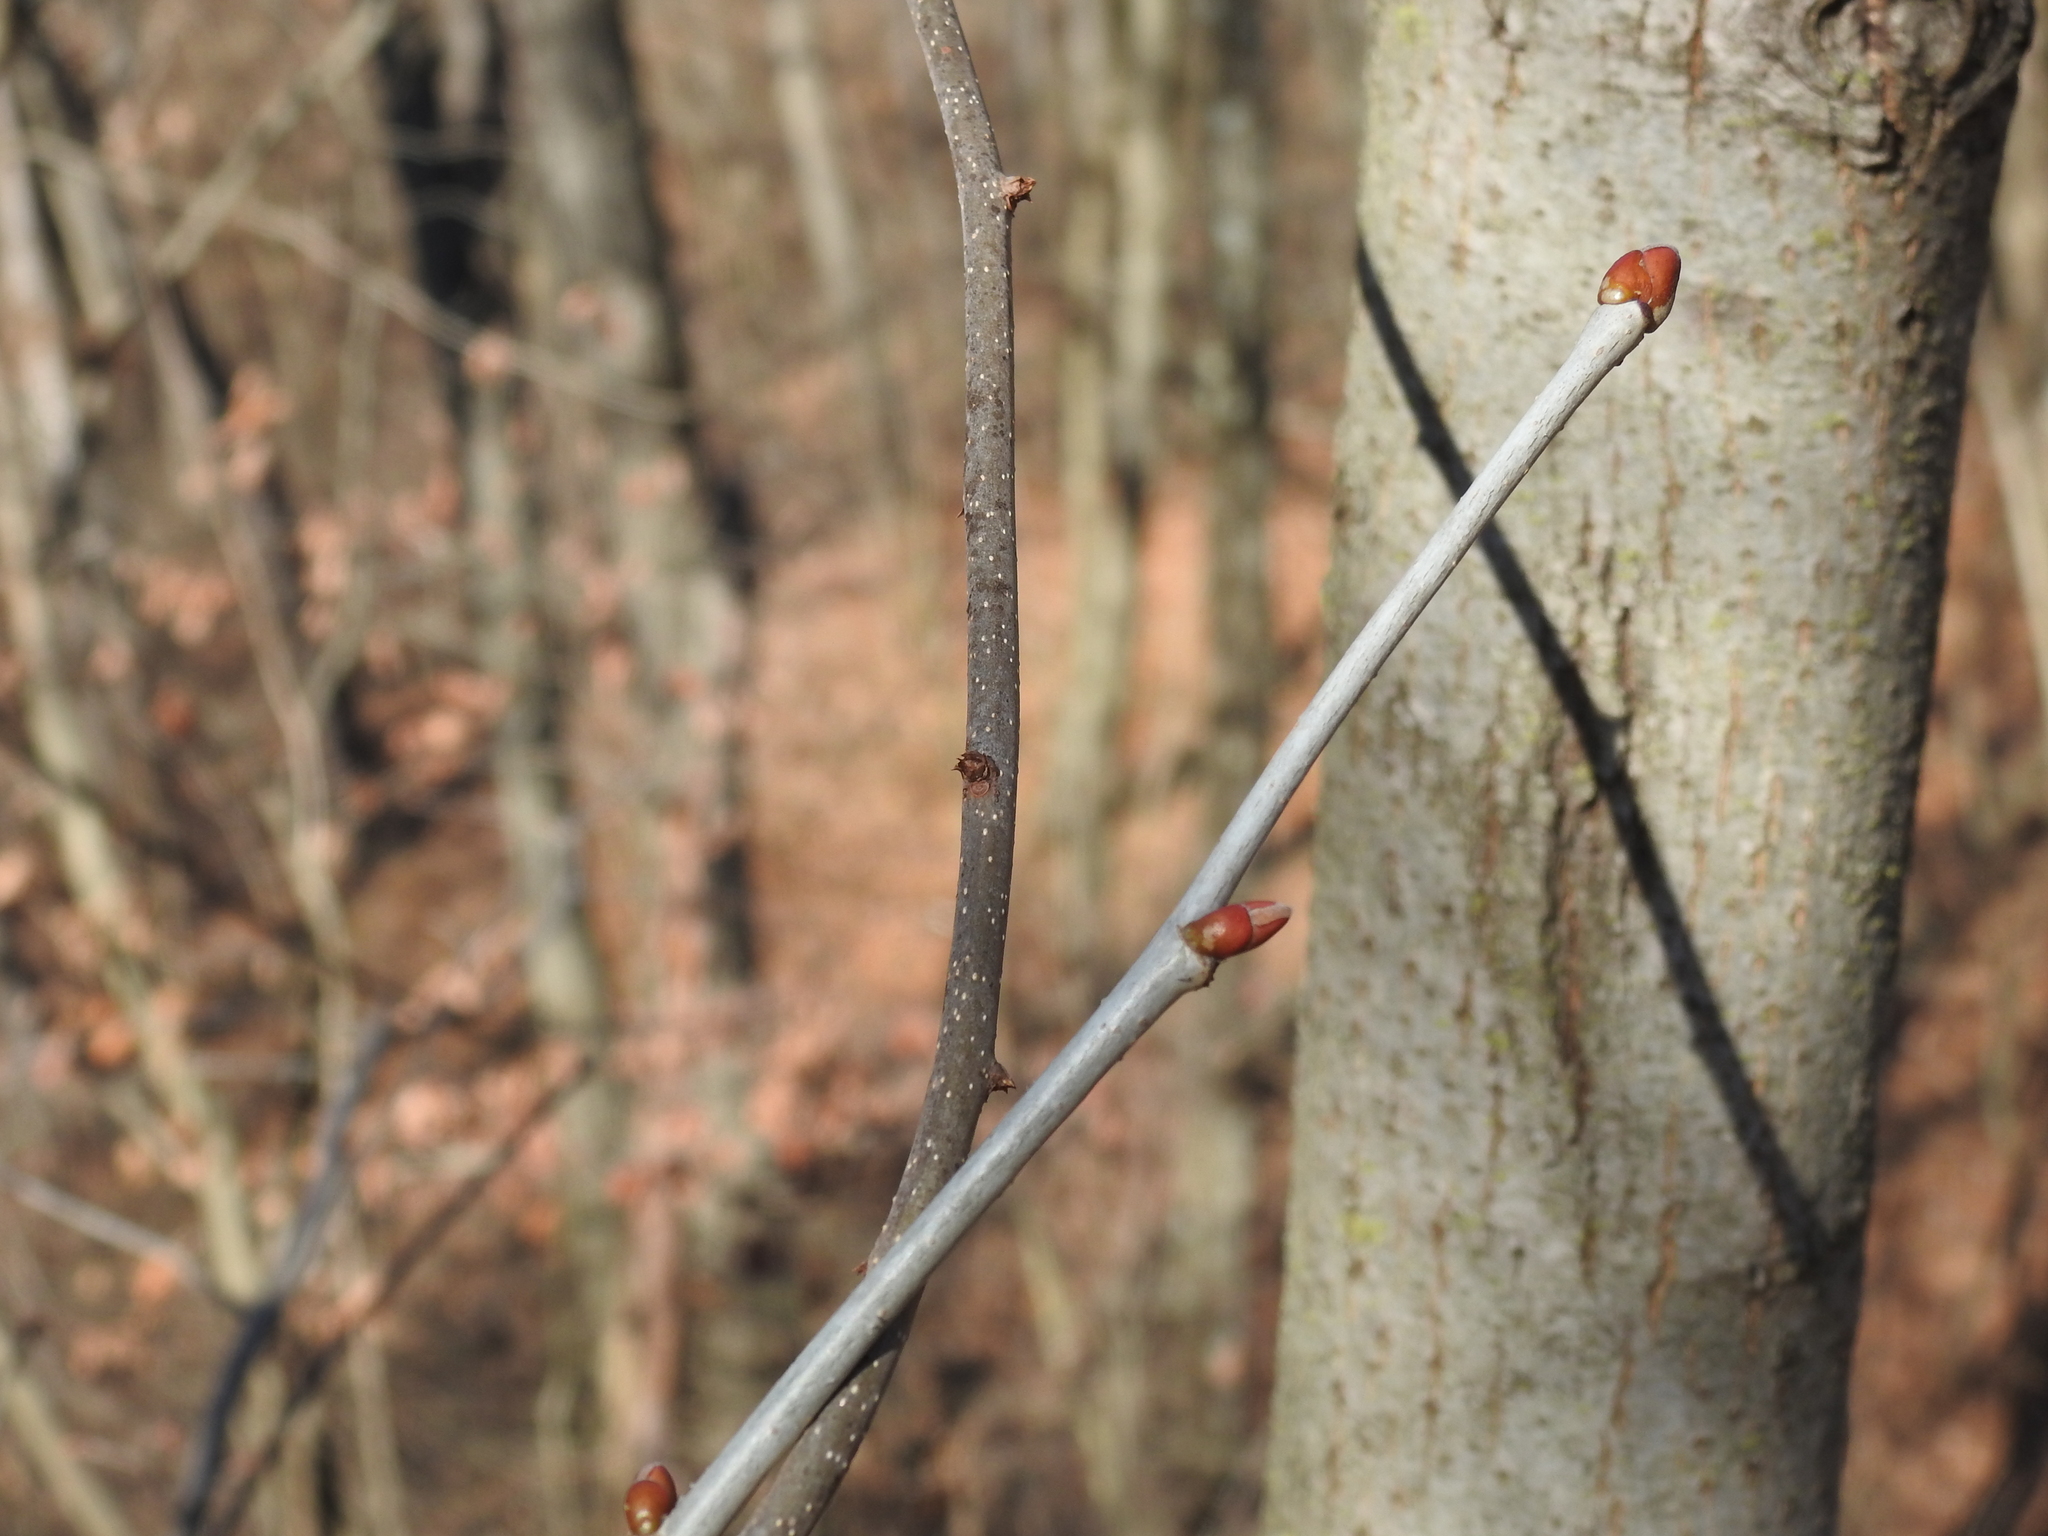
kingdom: Plantae
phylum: Tracheophyta
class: Magnoliopsida
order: Malvales
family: Malvaceae
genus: Tilia
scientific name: Tilia americana
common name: Basswood
